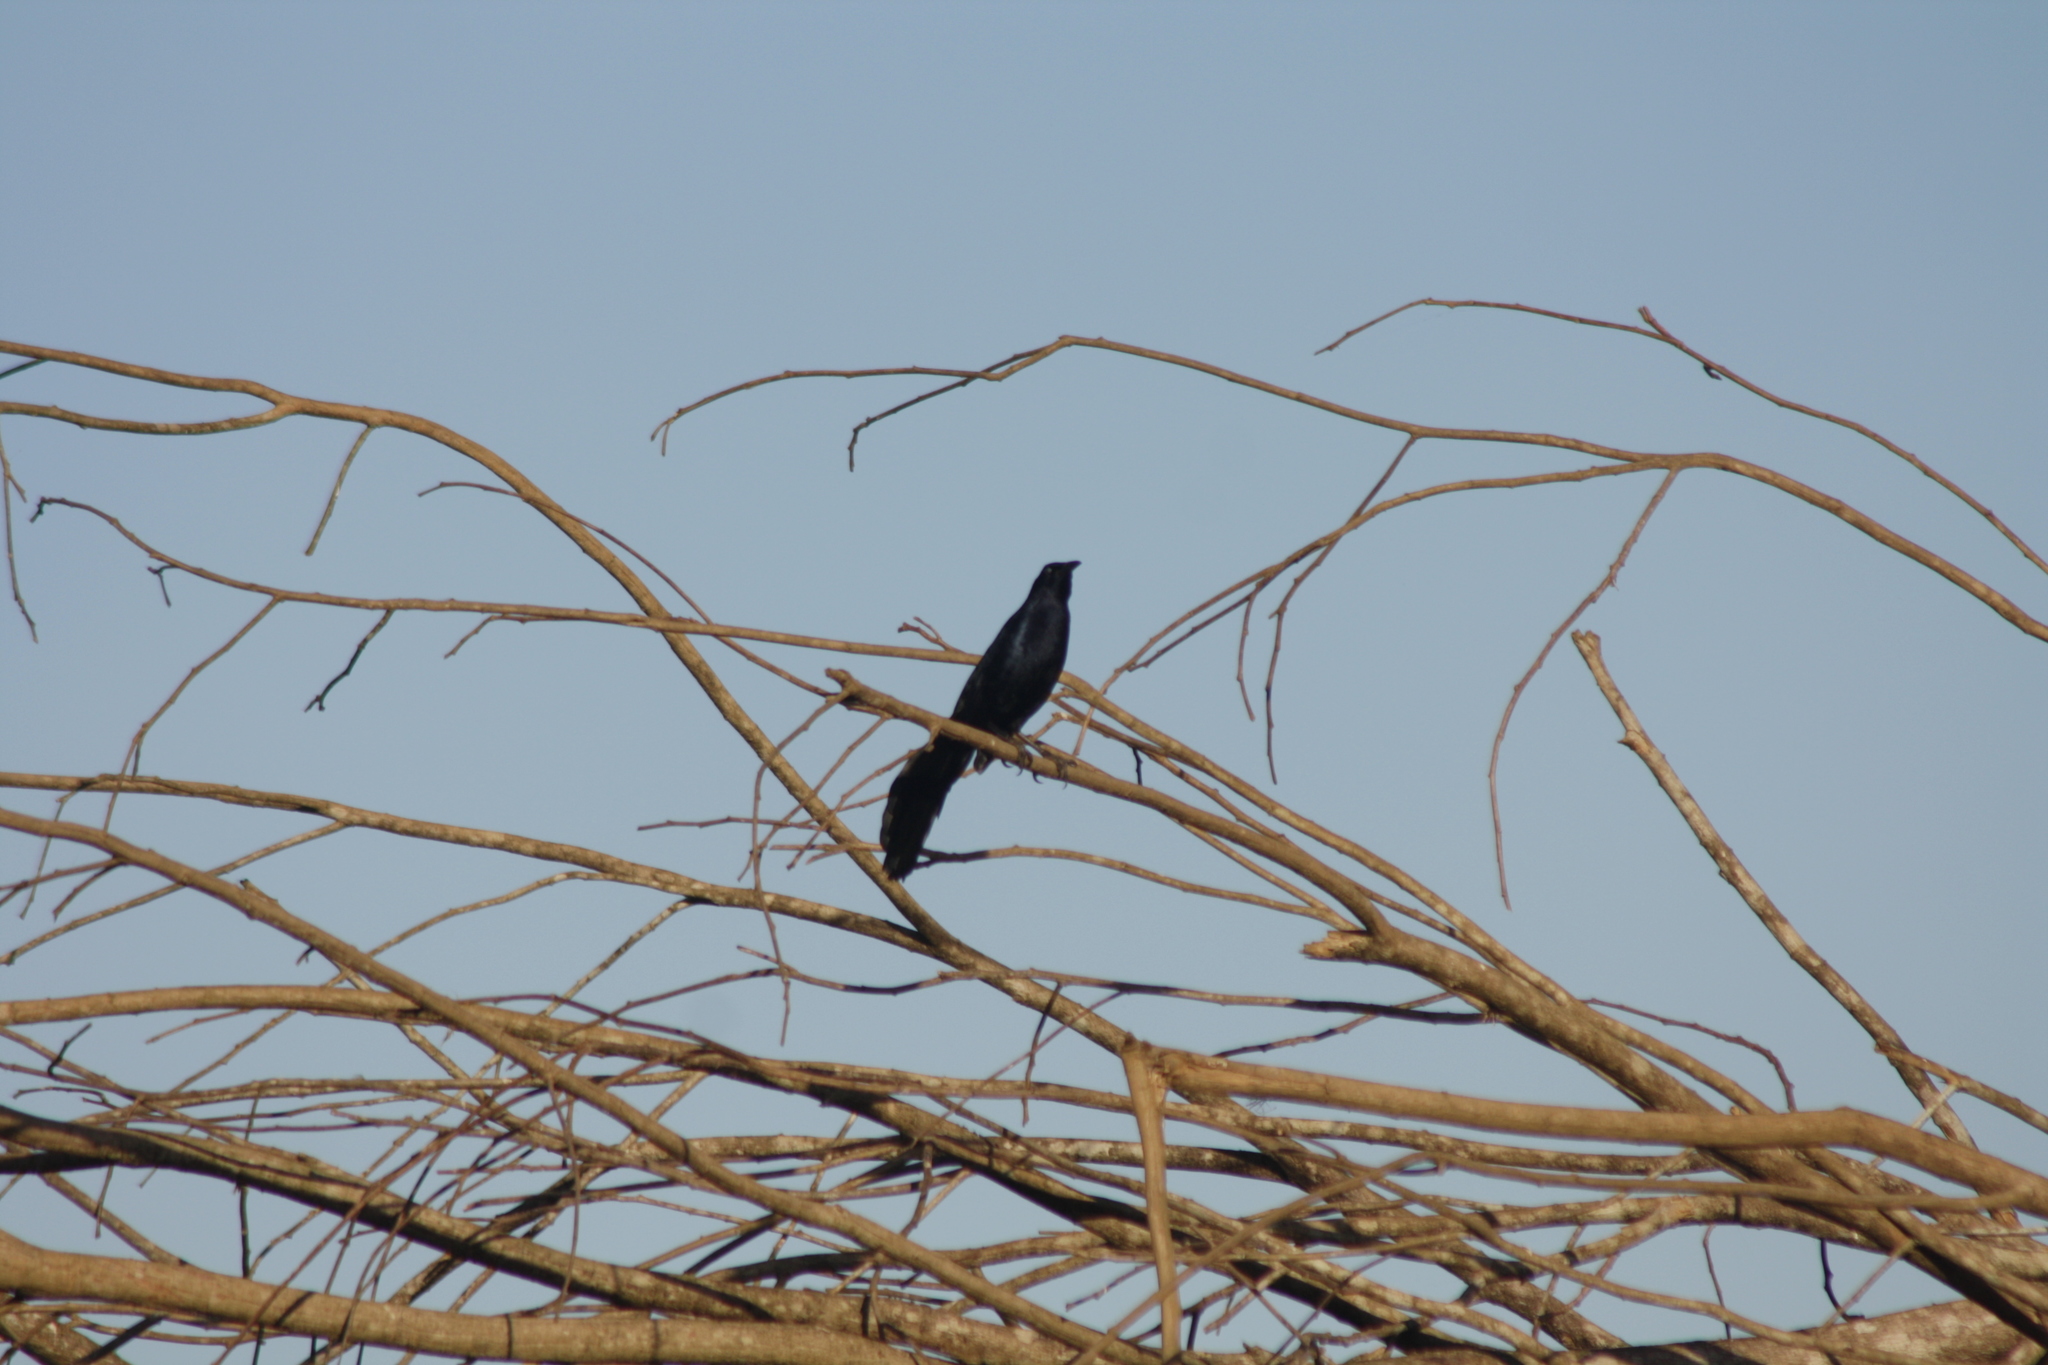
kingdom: Animalia
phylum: Chordata
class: Aves
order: Passeriformes
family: Icteridae
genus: Quiscalus
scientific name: Quiscalus mexicanus
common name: Great-tailed grackle
